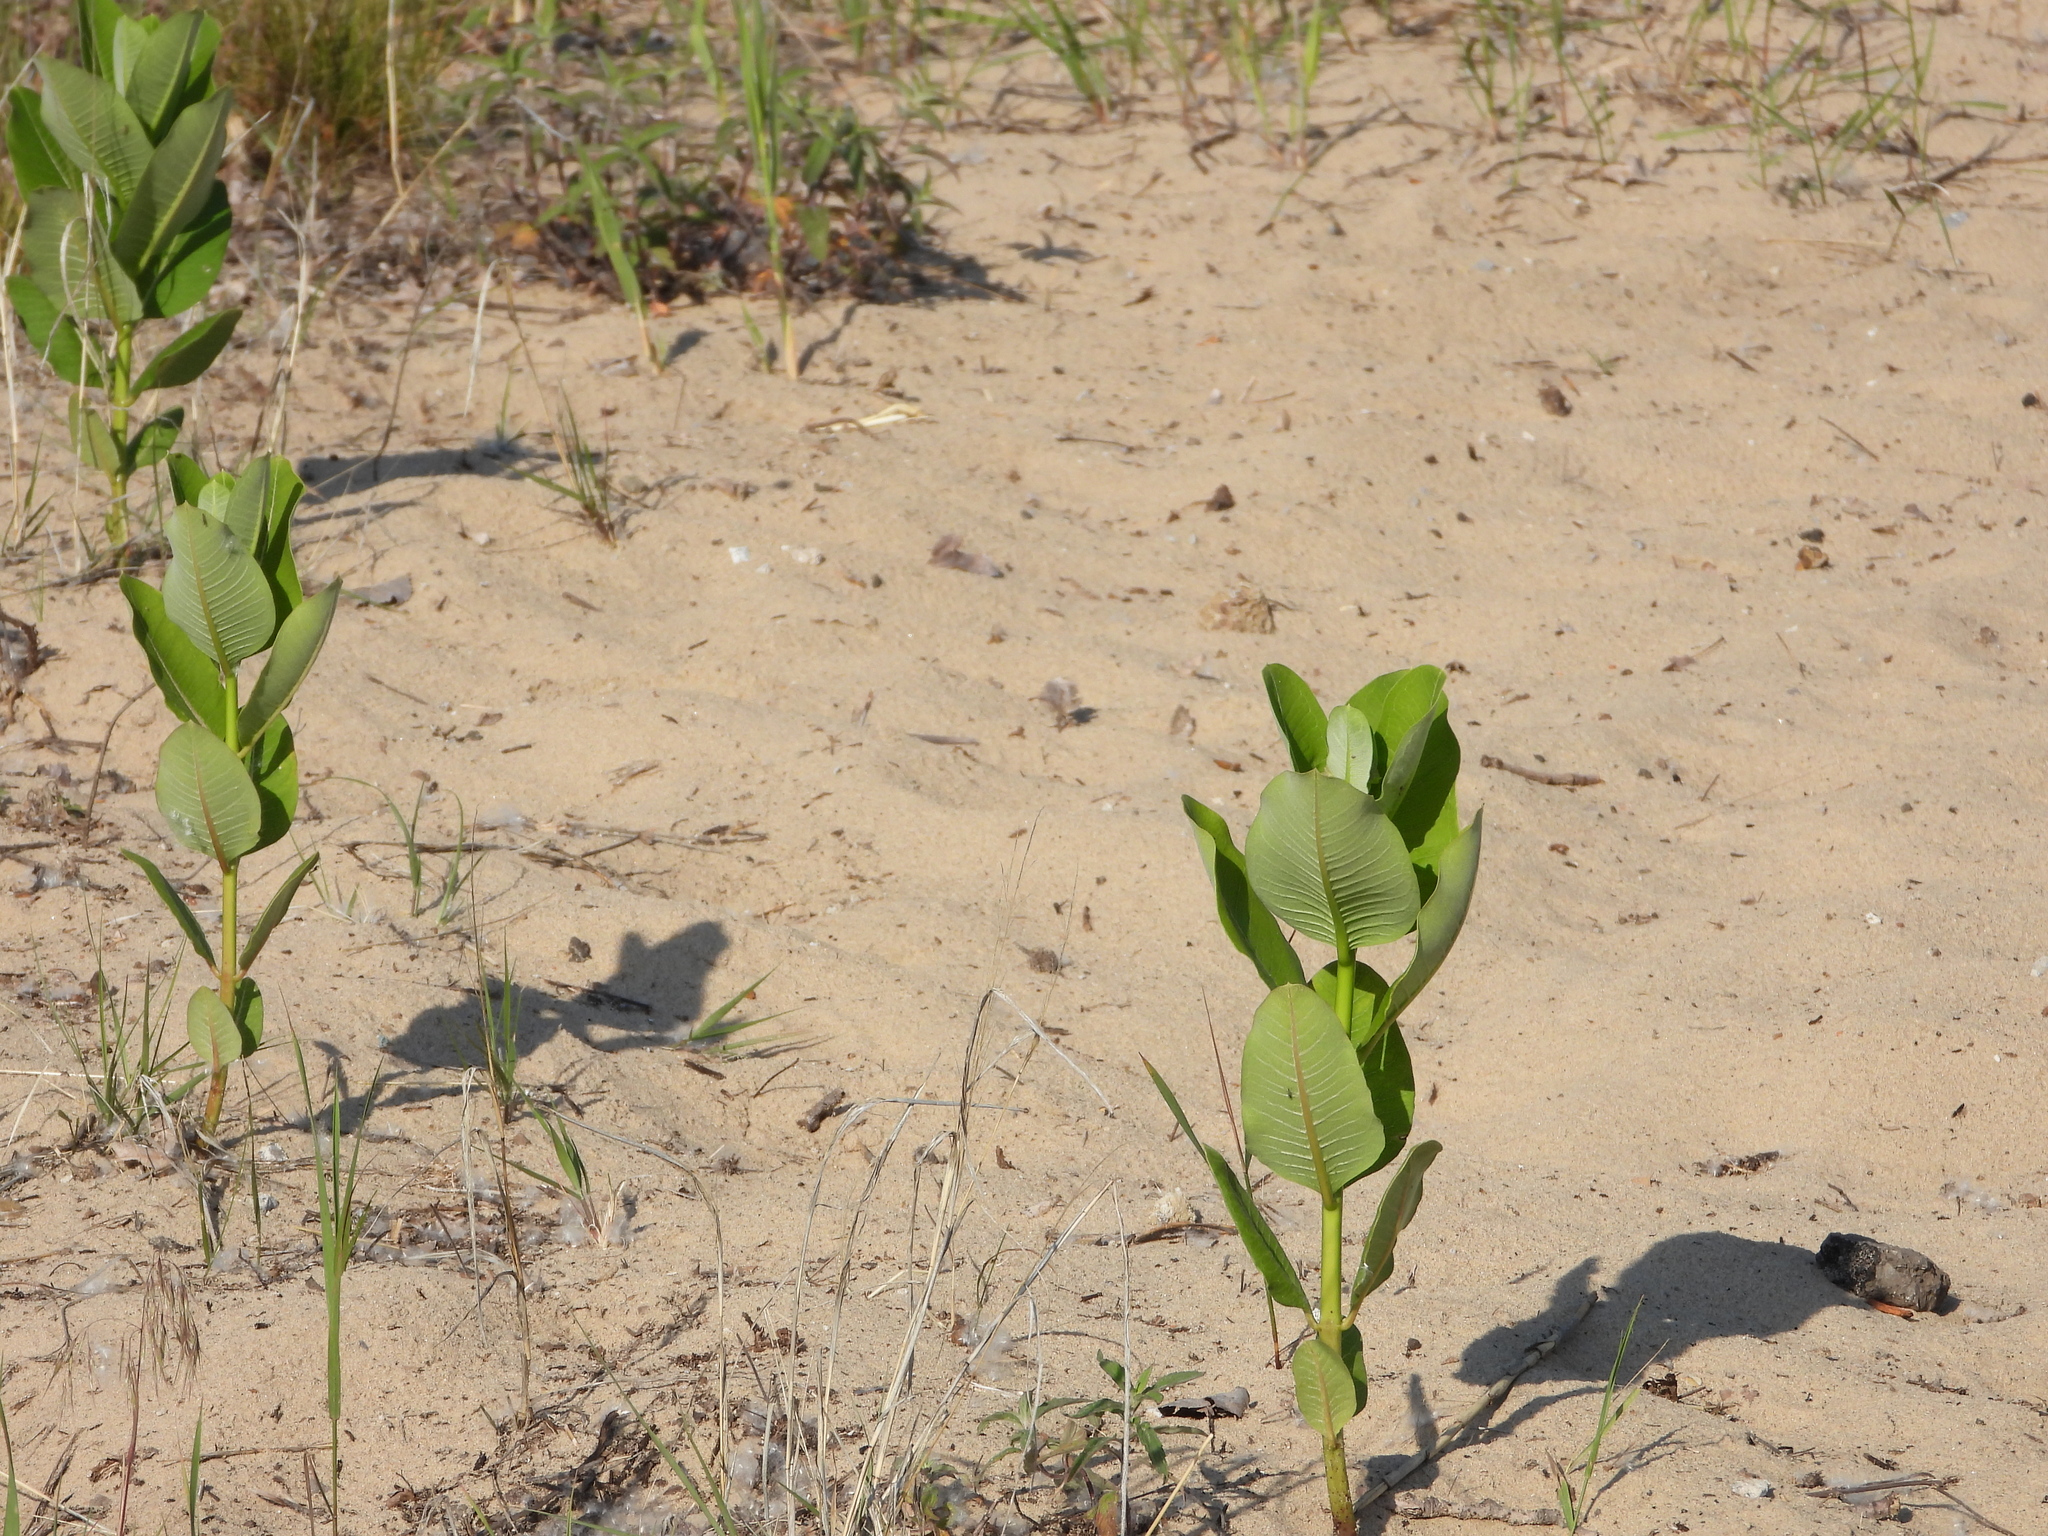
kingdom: Plantae
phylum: Tracheophyta
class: Magnoliopsida
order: Gentianales
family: Apocynaceae
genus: Asclepias
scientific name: Asclepias syriaca
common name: Common milkweed
